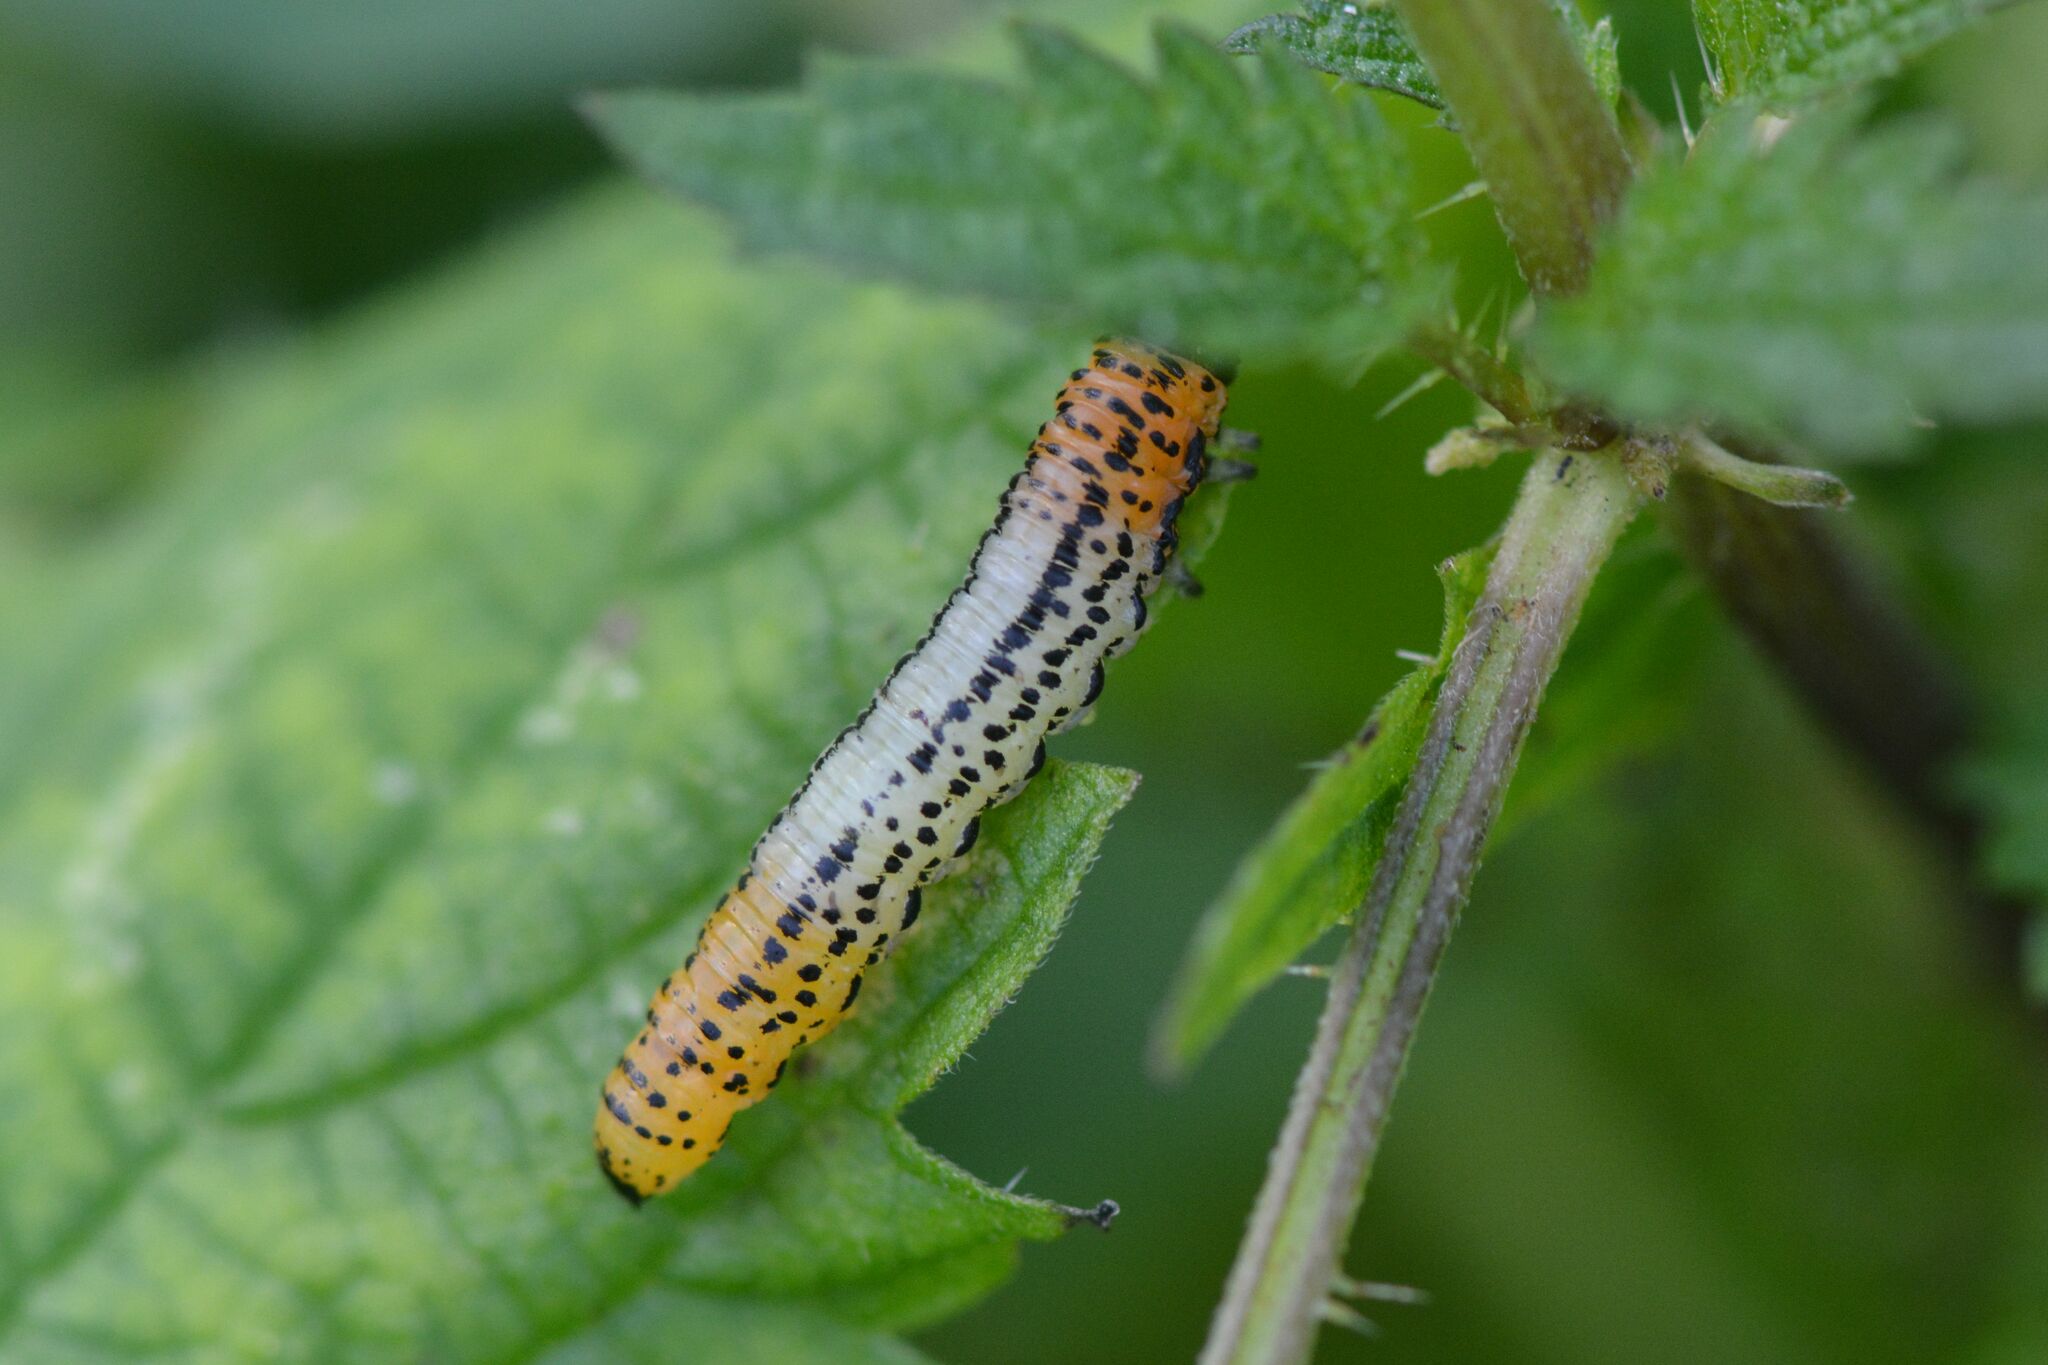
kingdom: Animalia
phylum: Arthropoda
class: Insecta
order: Hymenoptera
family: Tenthredinidae
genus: Nematus
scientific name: Nematus miliaris
